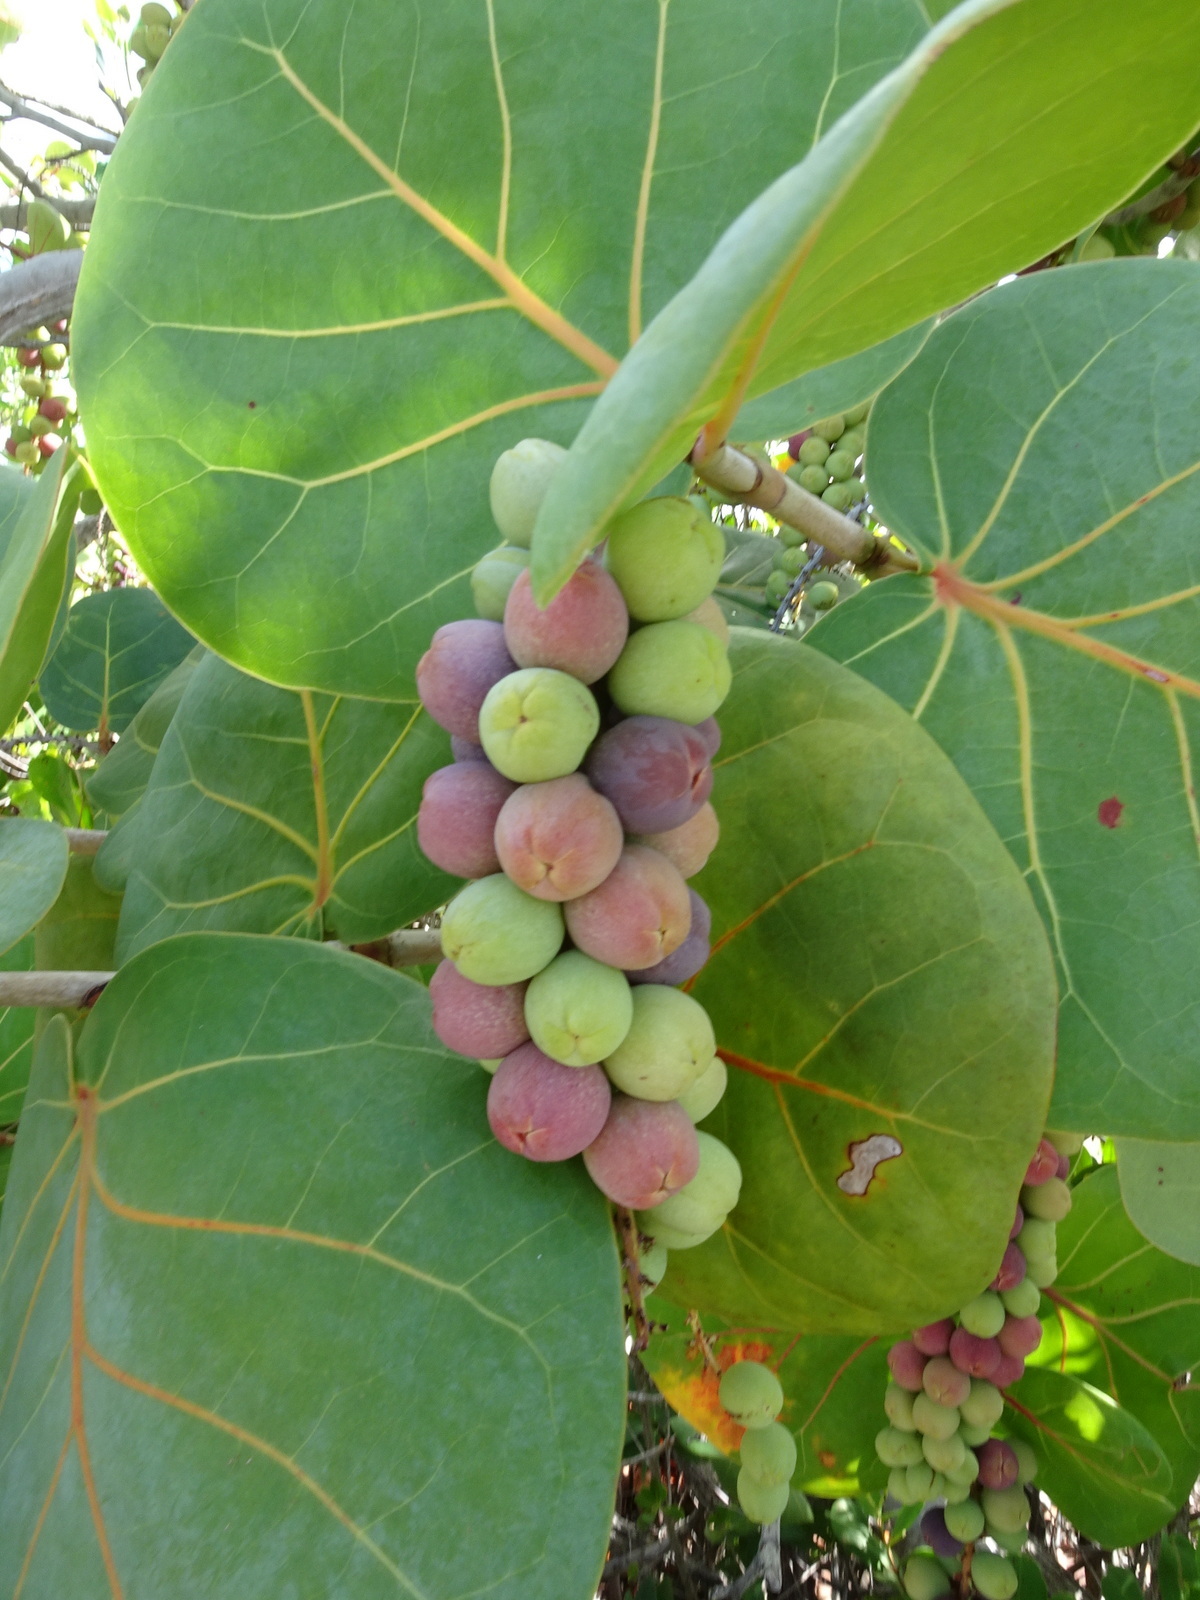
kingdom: Plantae
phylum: Tracheophyta
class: Magnoliopsida
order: Caryophyllales
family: Polygonaceae
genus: Coccoloba
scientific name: Coccoloba uvifera
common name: Seagrape
